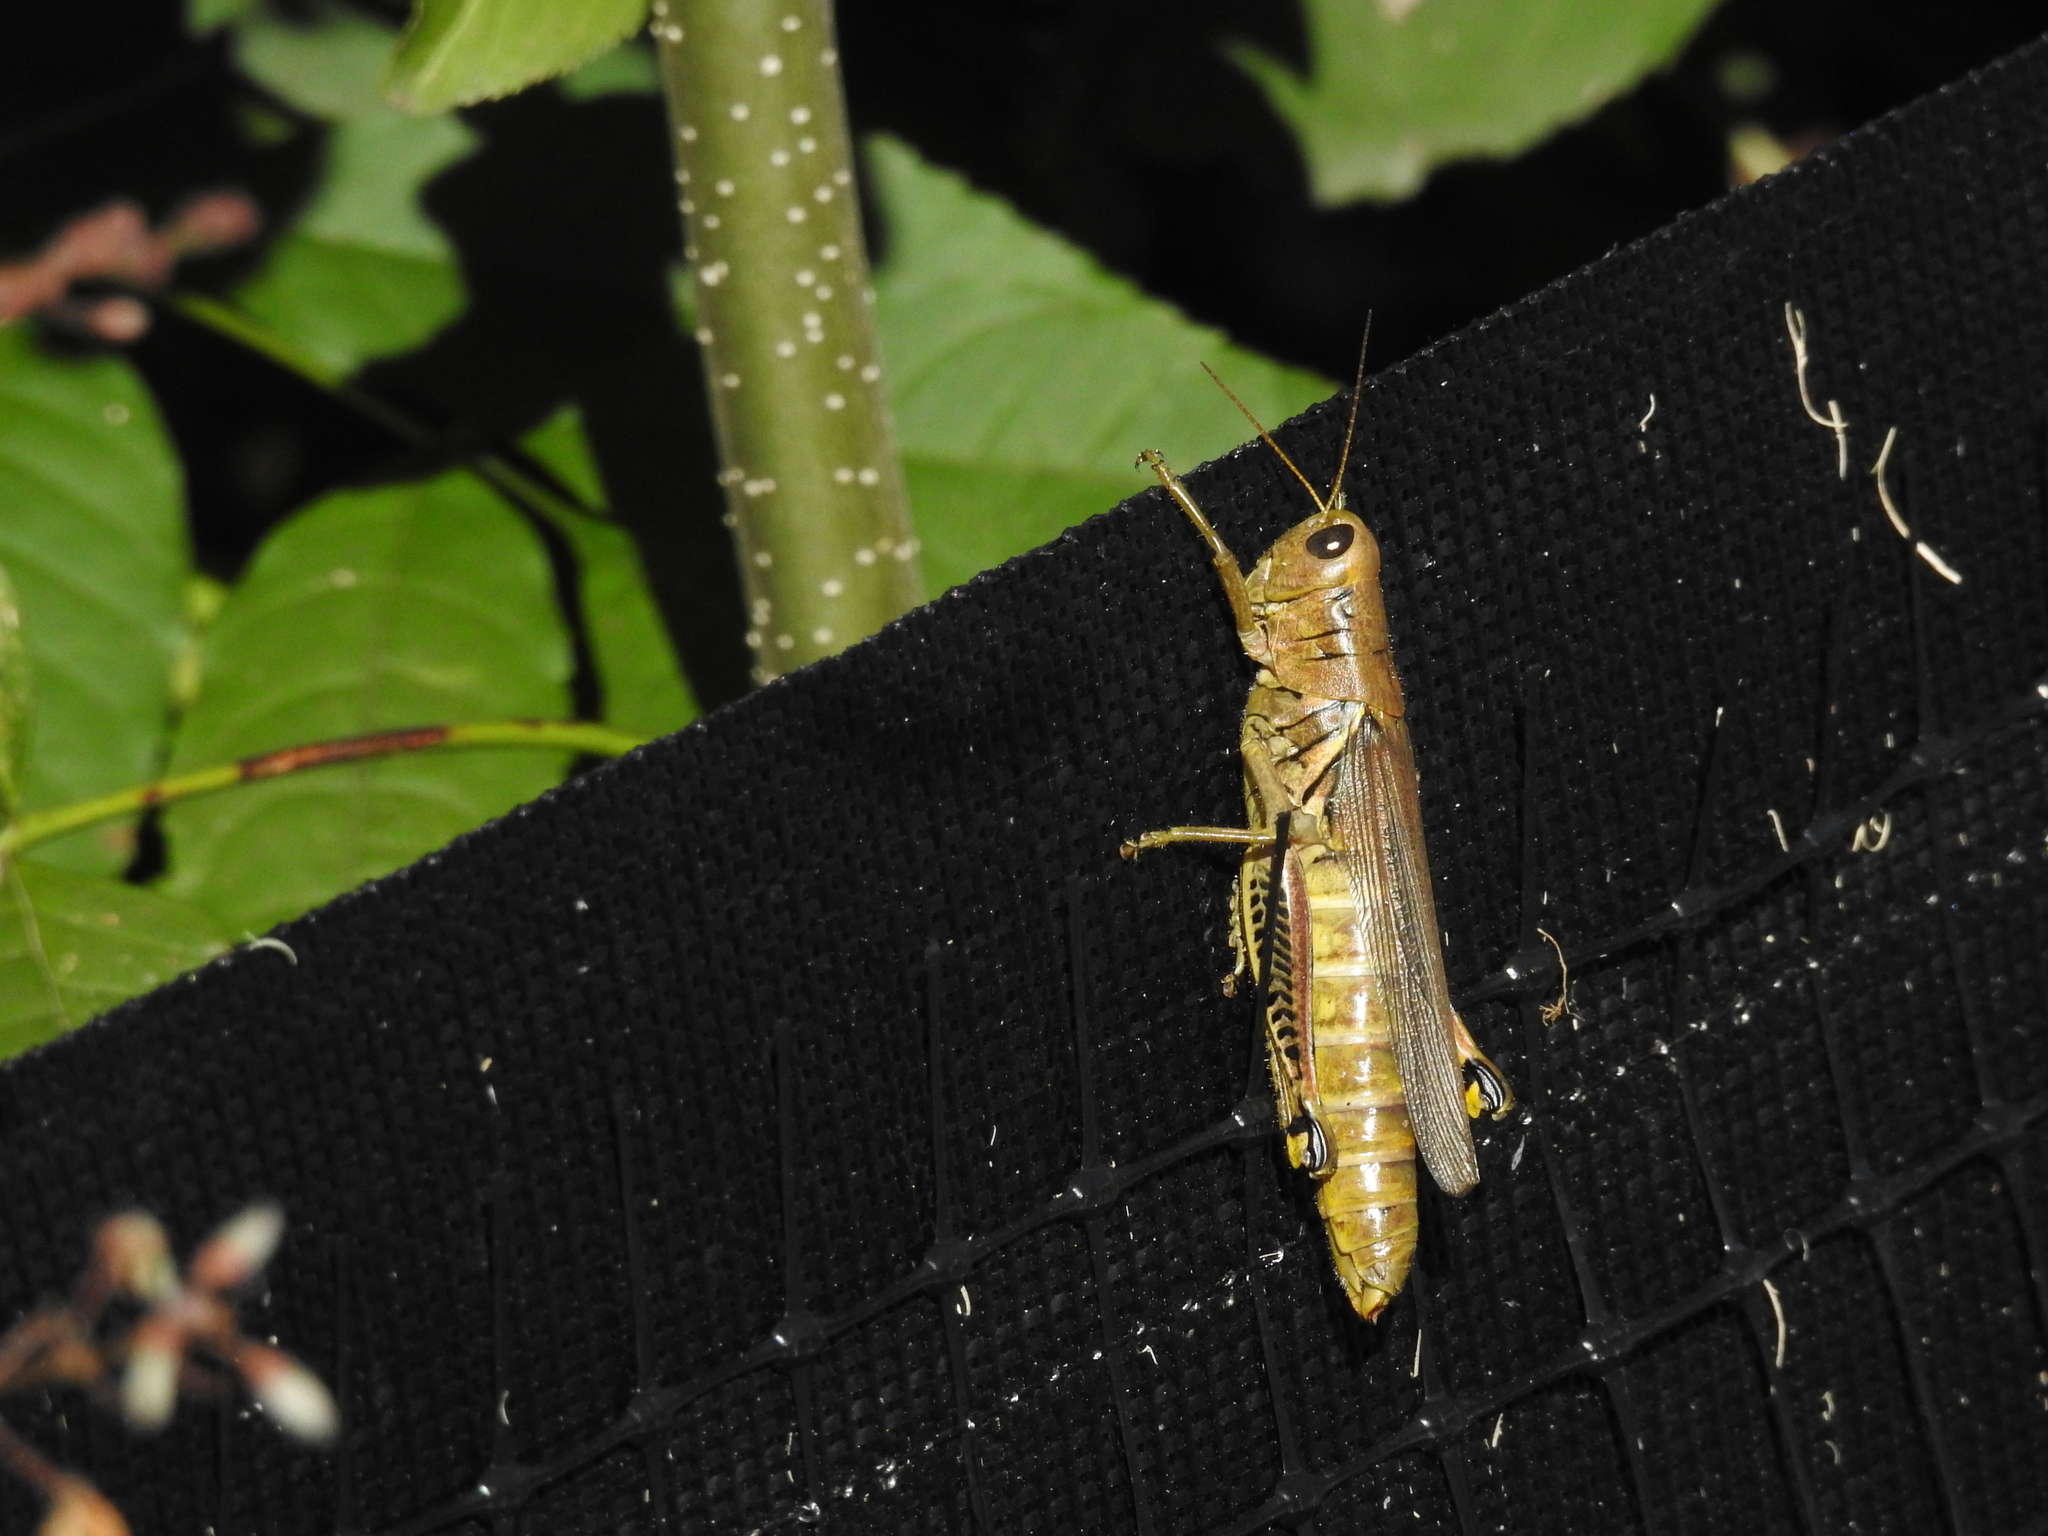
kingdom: Animalia
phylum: Arthropoda
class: Insecta
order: Orthoptera
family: Acrididae
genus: Melanoplus
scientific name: Melanoplus differentialis
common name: Differential grasshopper
